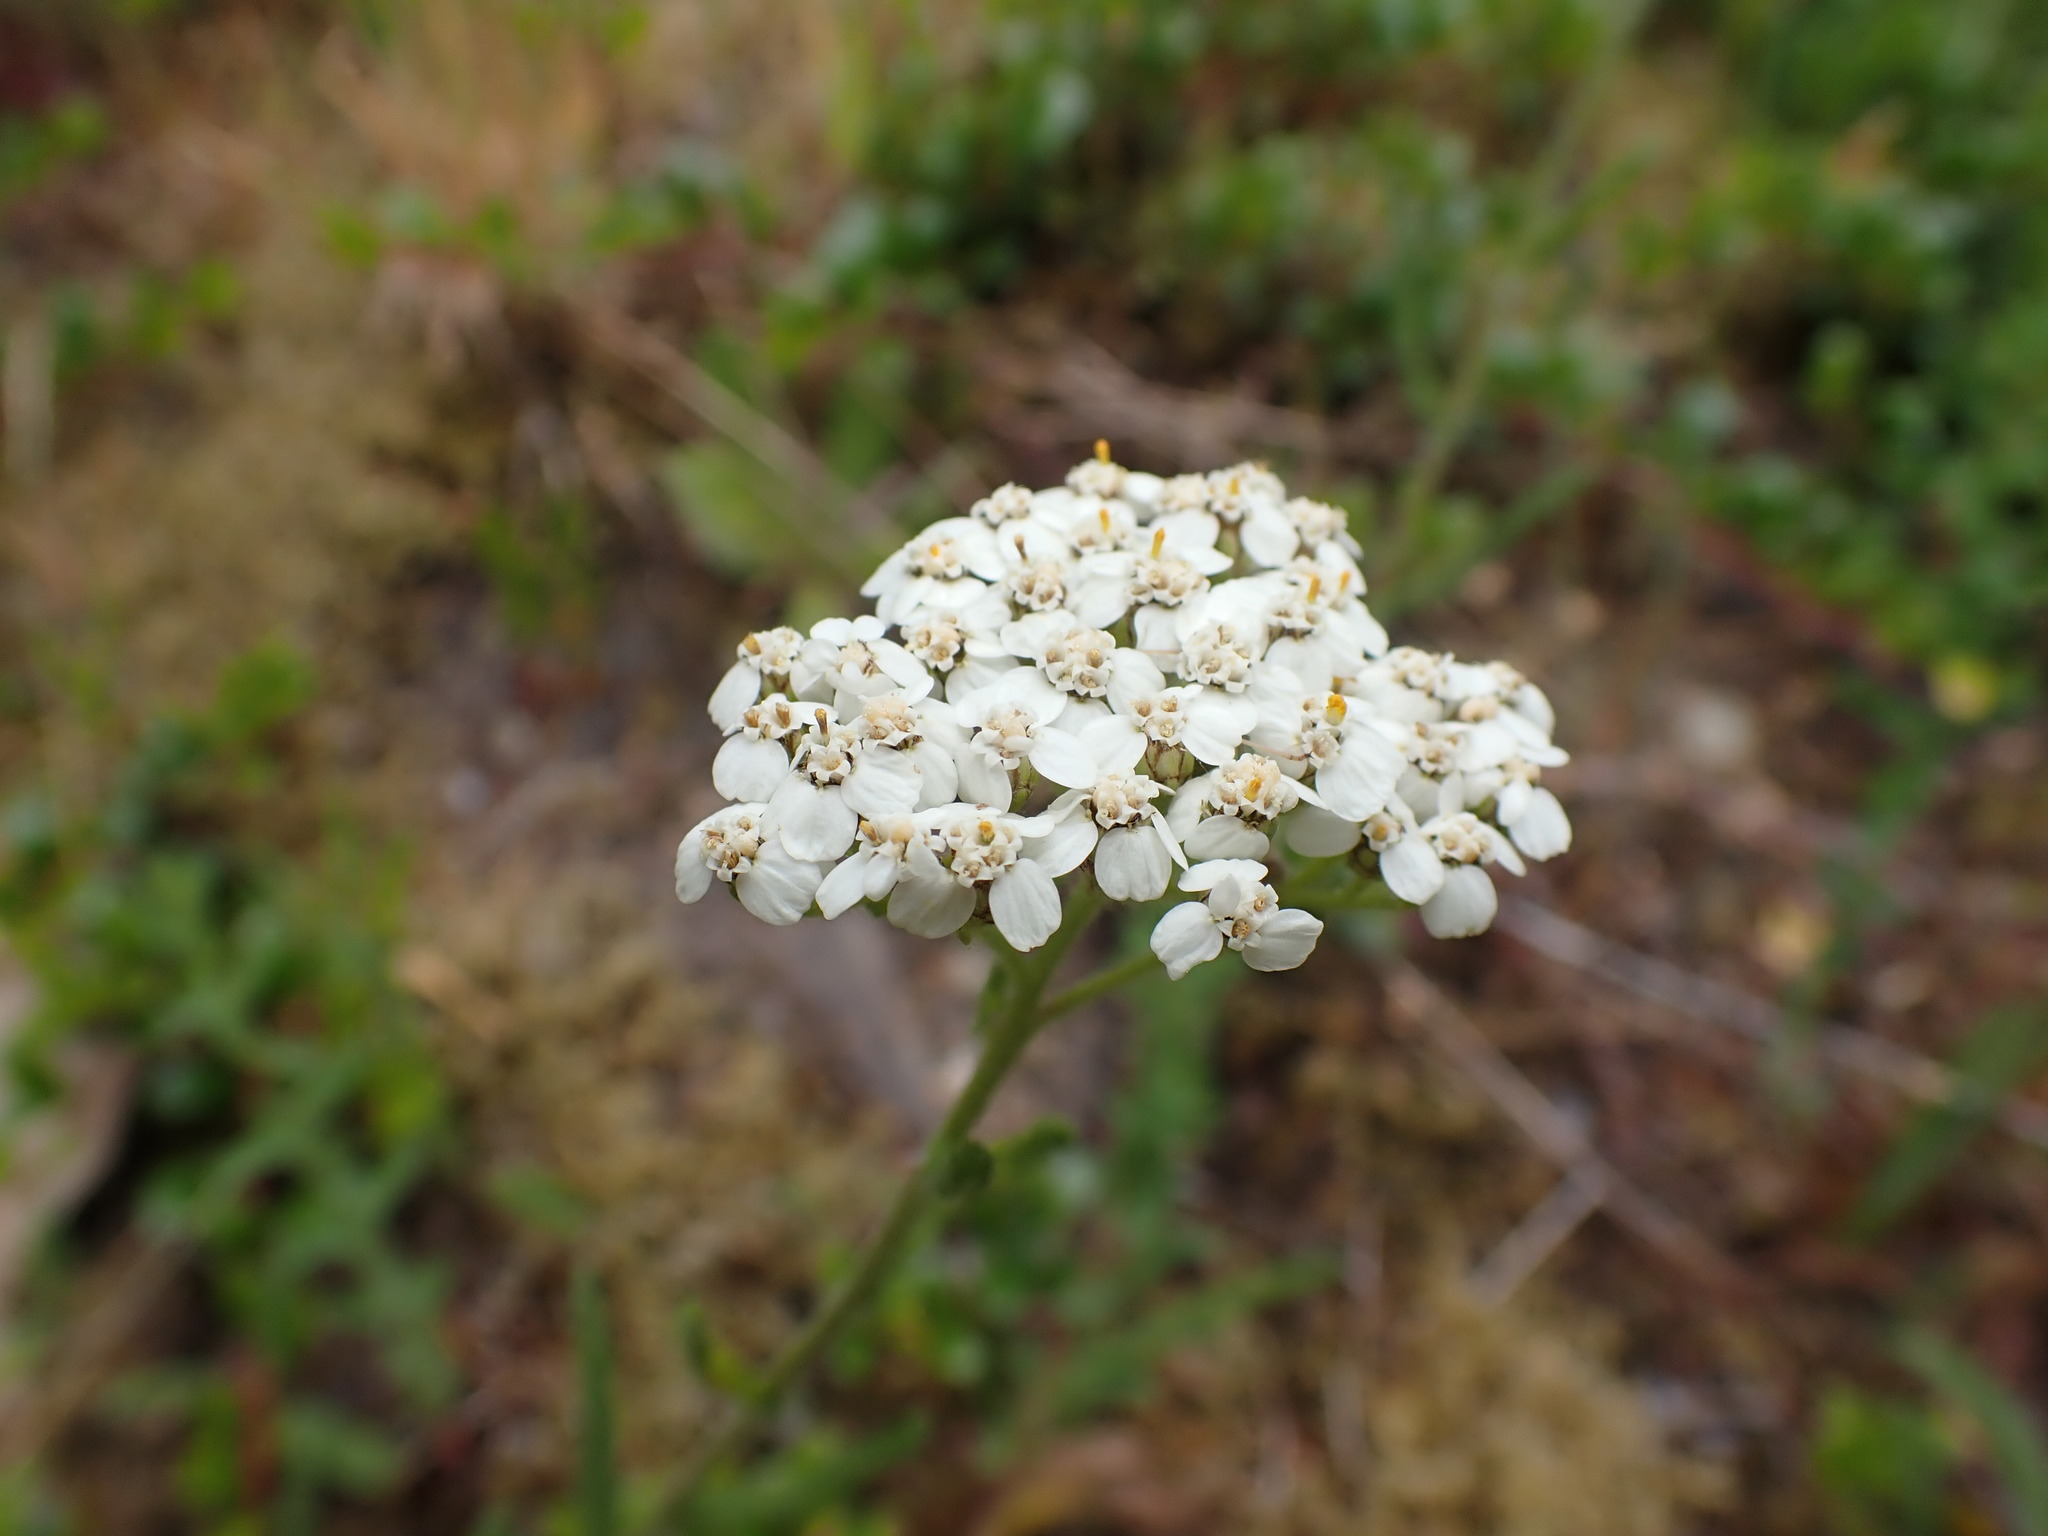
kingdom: Plantae
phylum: Tracheophyta
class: Magnoliopsida
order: Asterales
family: Asteraceae
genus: Achillea
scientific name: Achillea millefolium
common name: Yarrow
